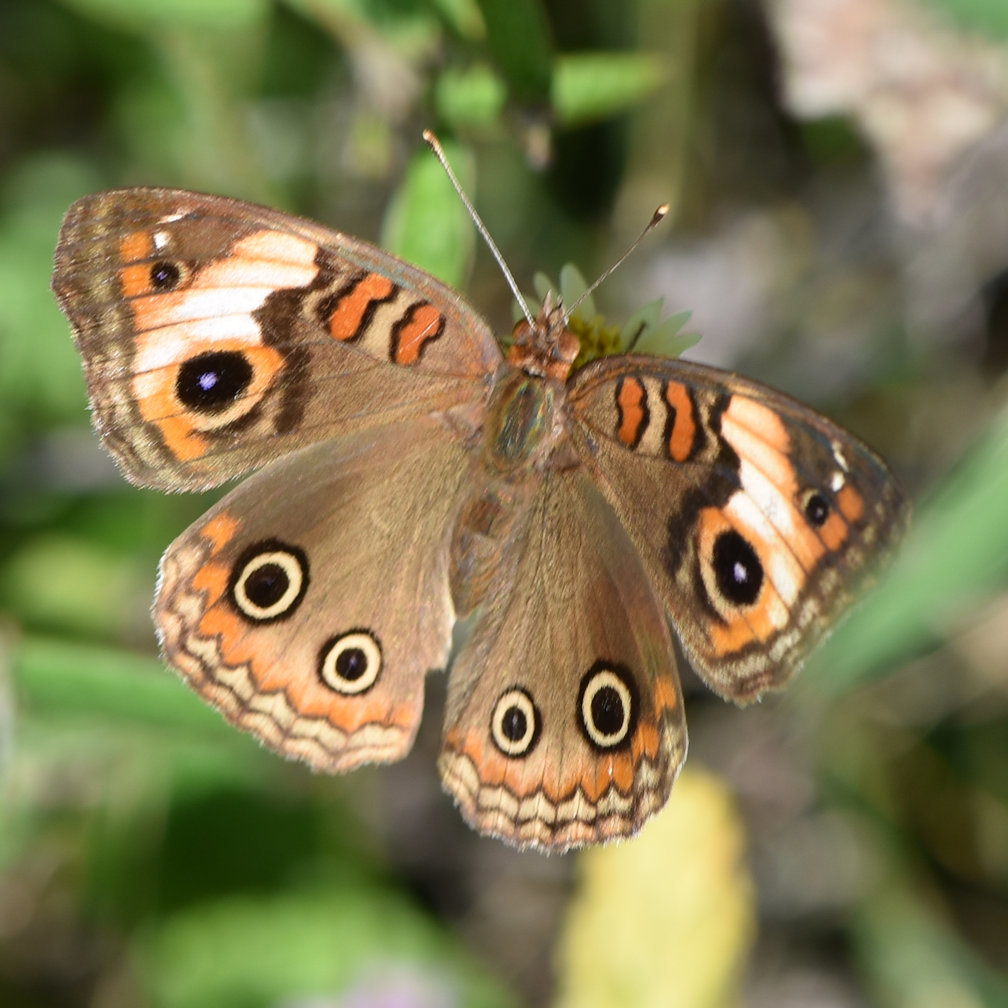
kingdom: Animalia
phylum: Arthropoda
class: Insecta
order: Lepidoptera
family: Nymphalidae
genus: Junonia
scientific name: Junonia lavinia
